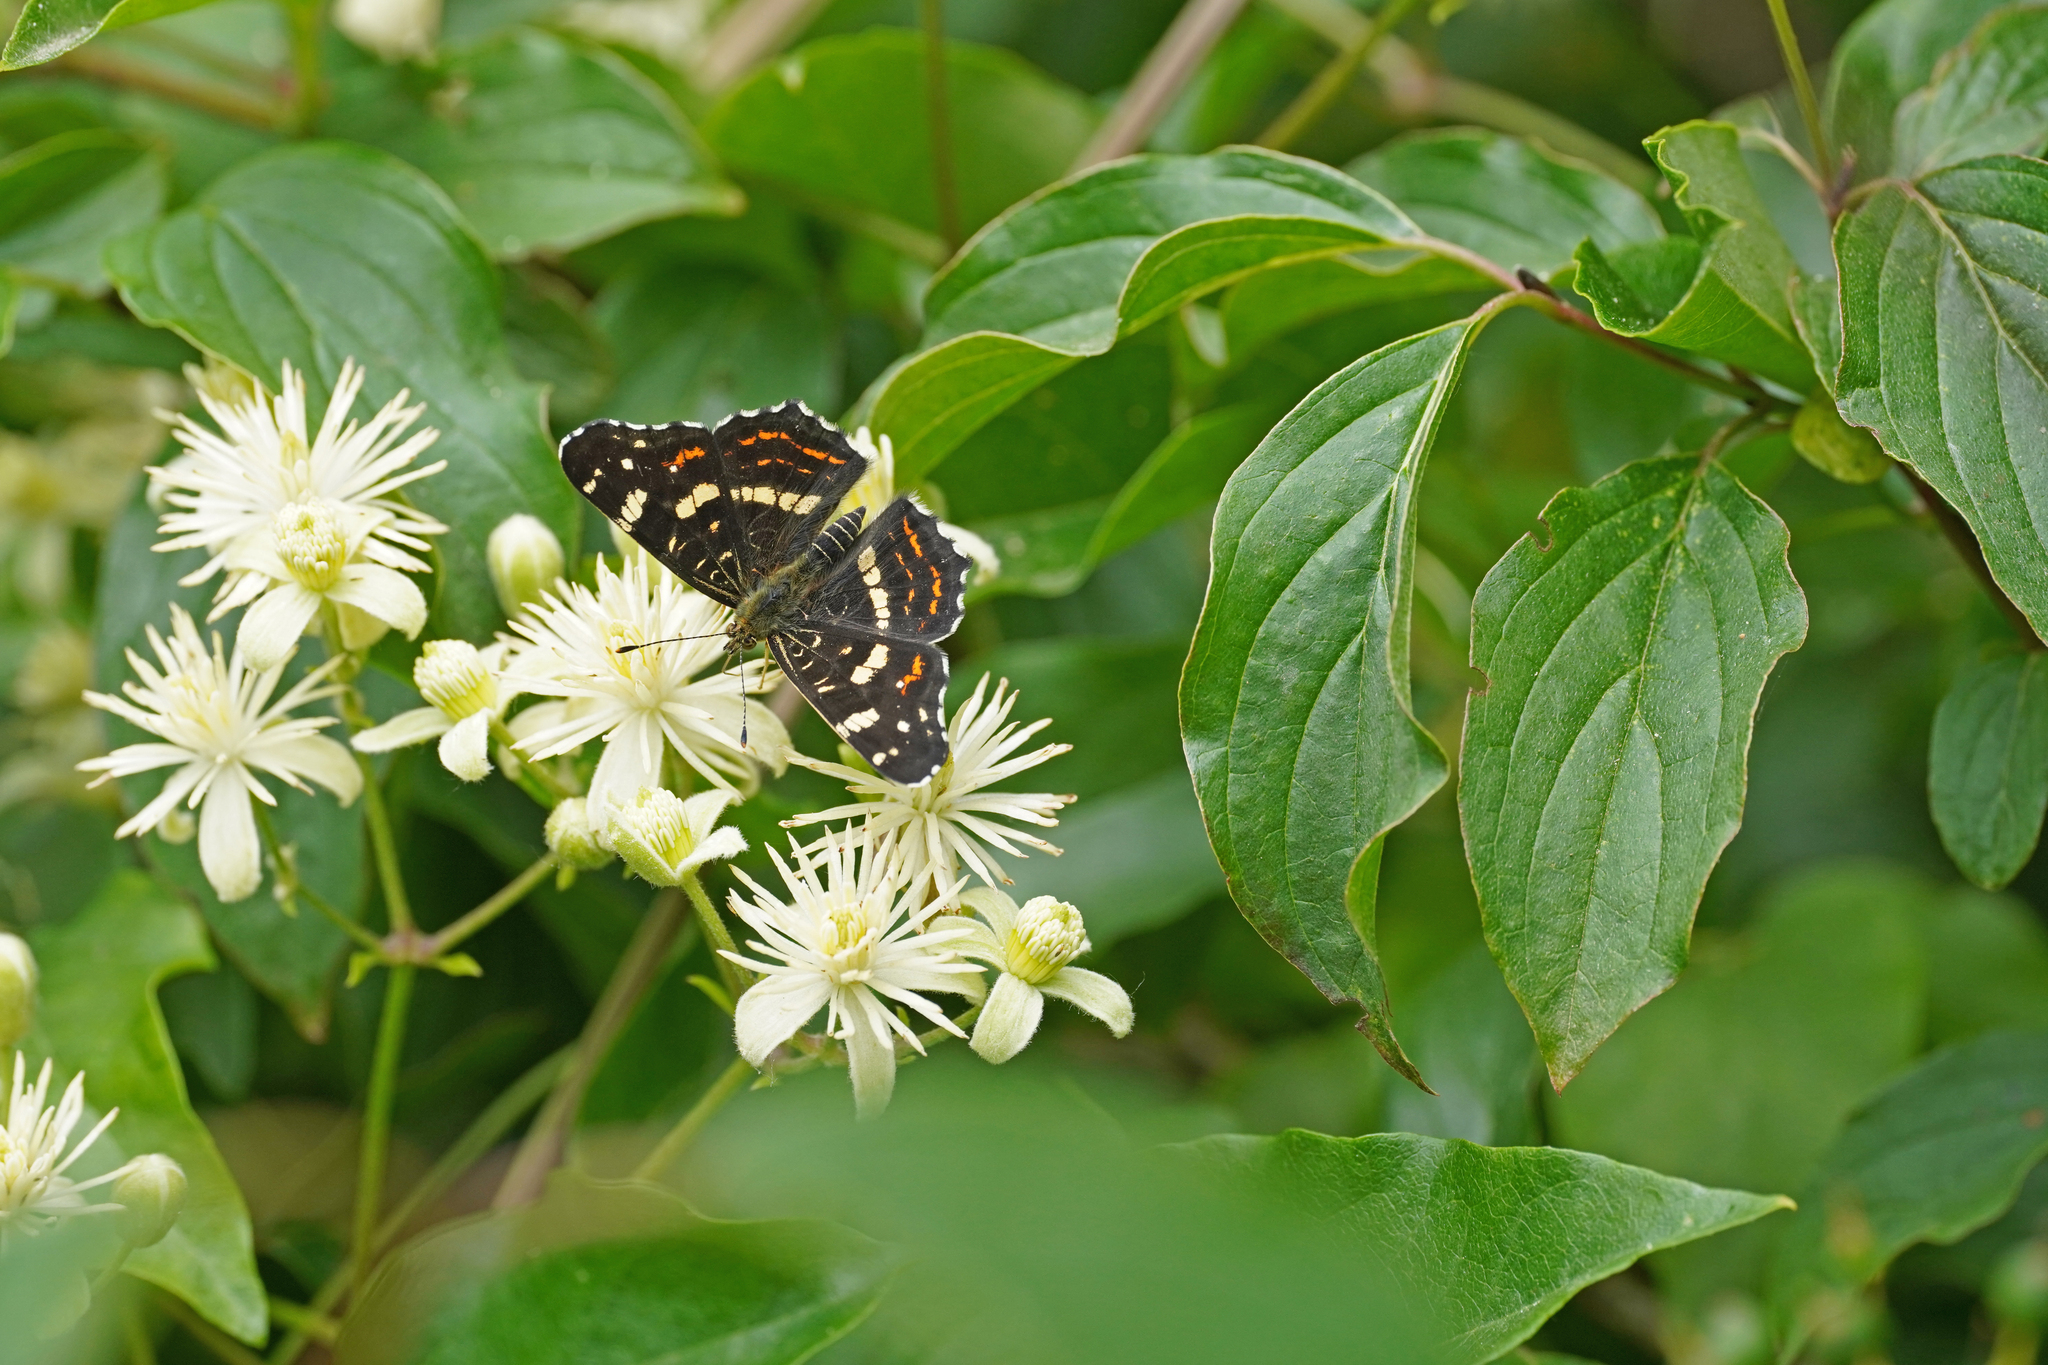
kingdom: Animalia
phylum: Arthropoda
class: Insecta
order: Lepidoptera
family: Nymphalidae
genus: Araschnia
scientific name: Araschnia levana
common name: Map butterfly
